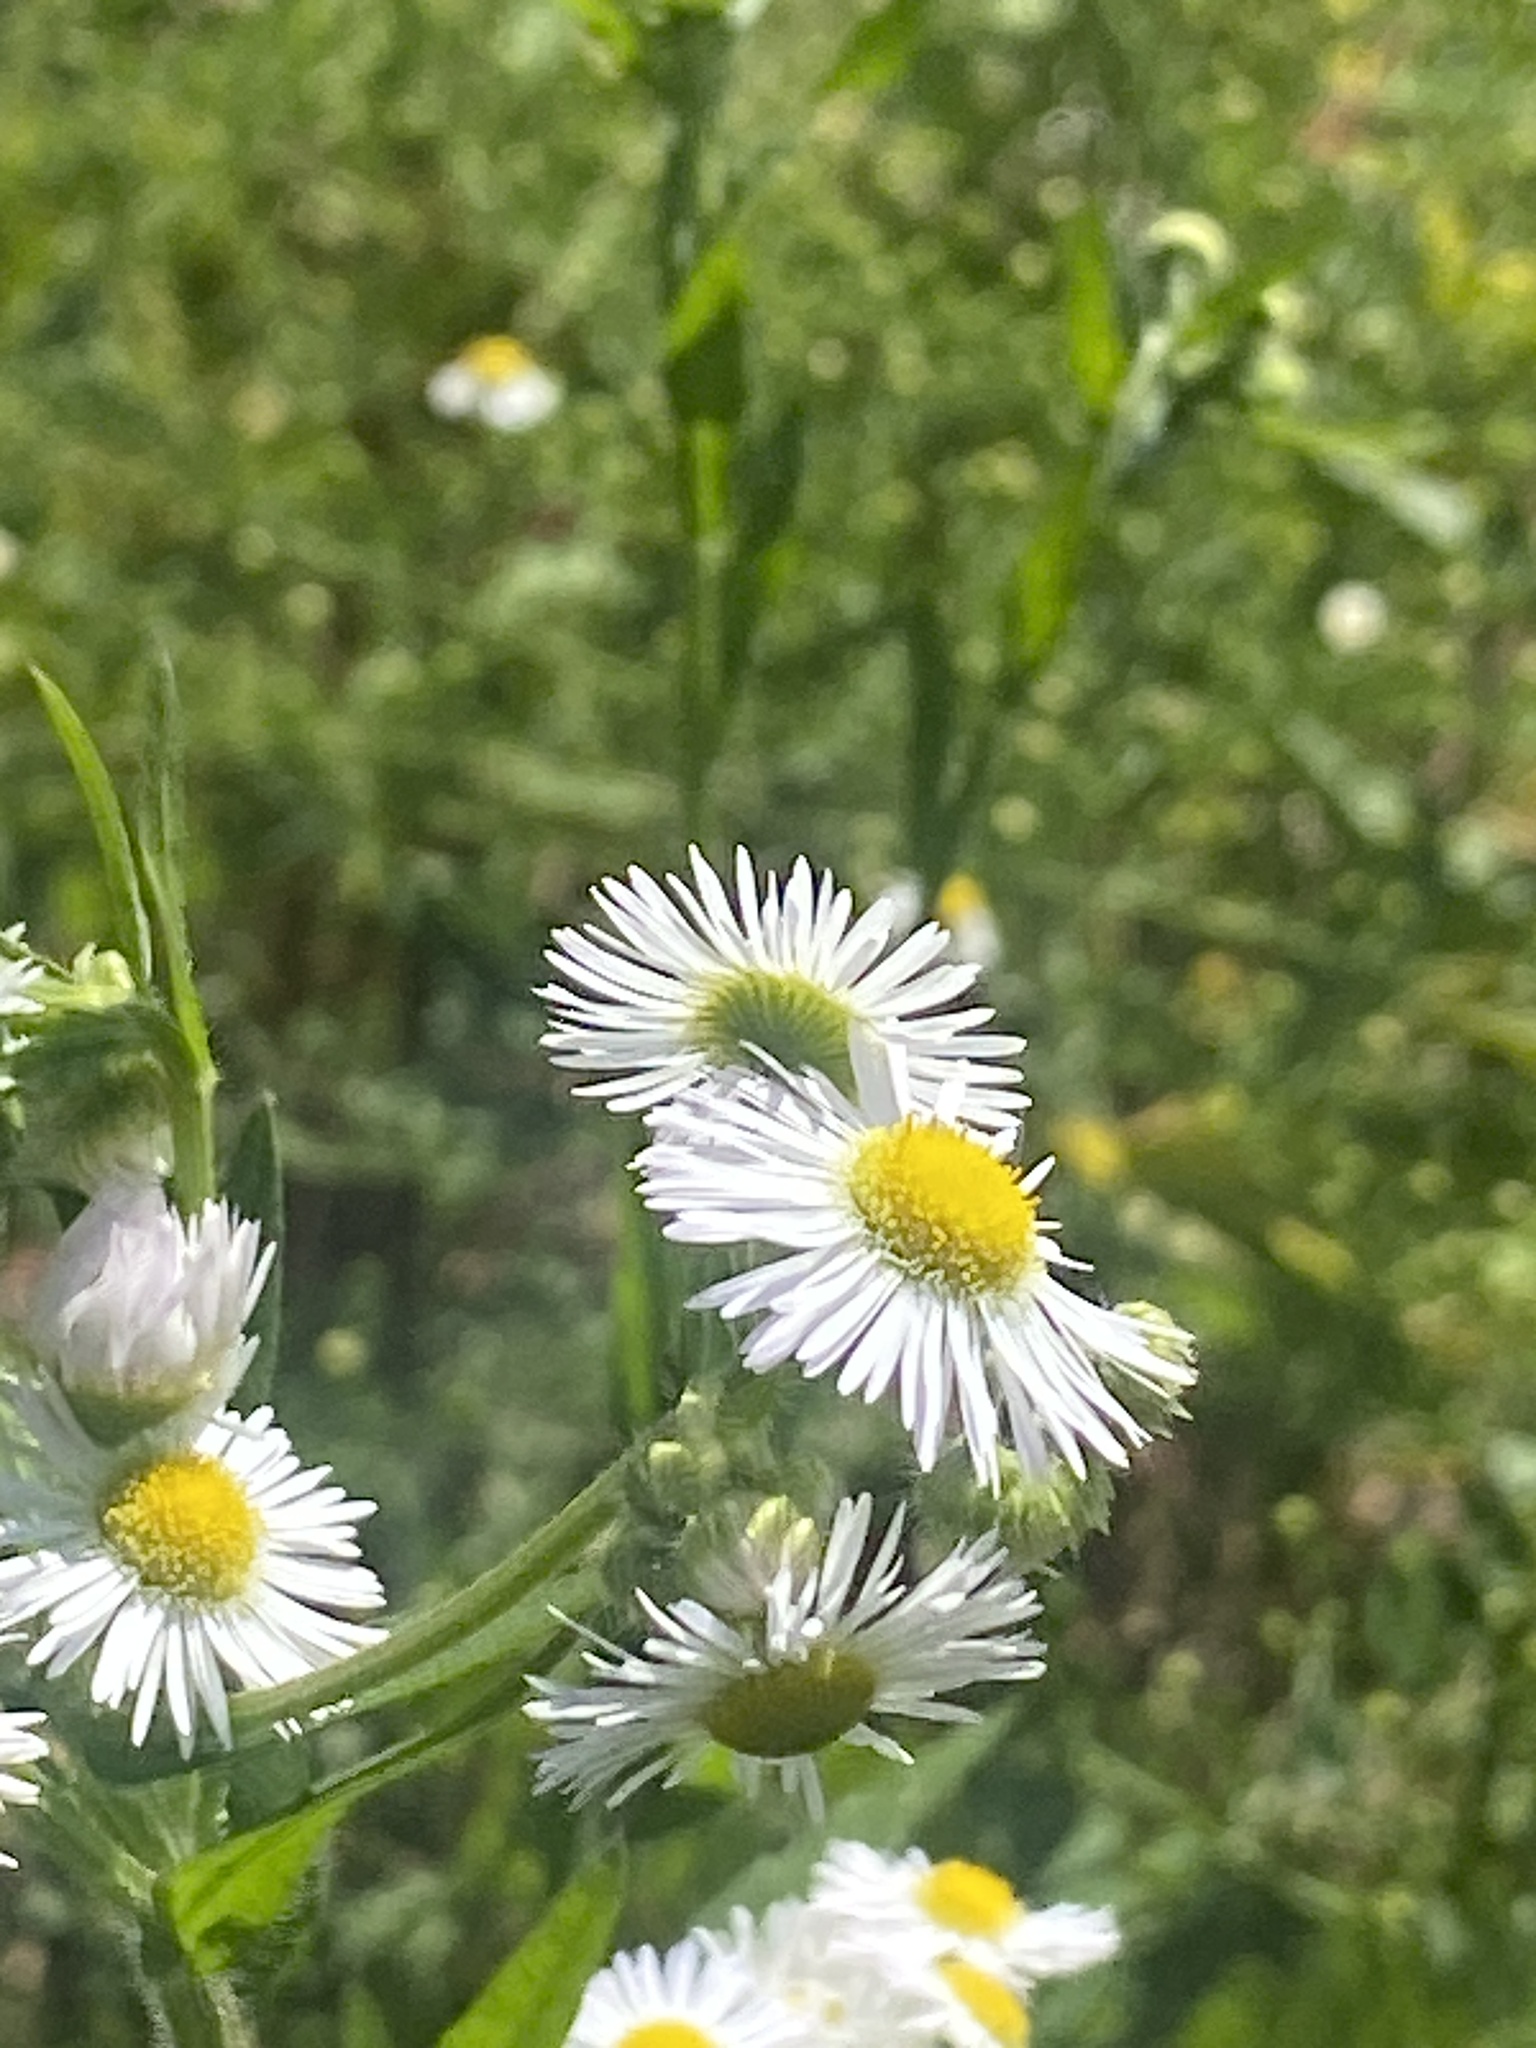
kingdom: Plantae
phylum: Tracheophyta
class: Magnoliopsida
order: Asterales
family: Asteraceae
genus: Erigeron
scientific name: Erigeron annuus
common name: Tall fleabane
